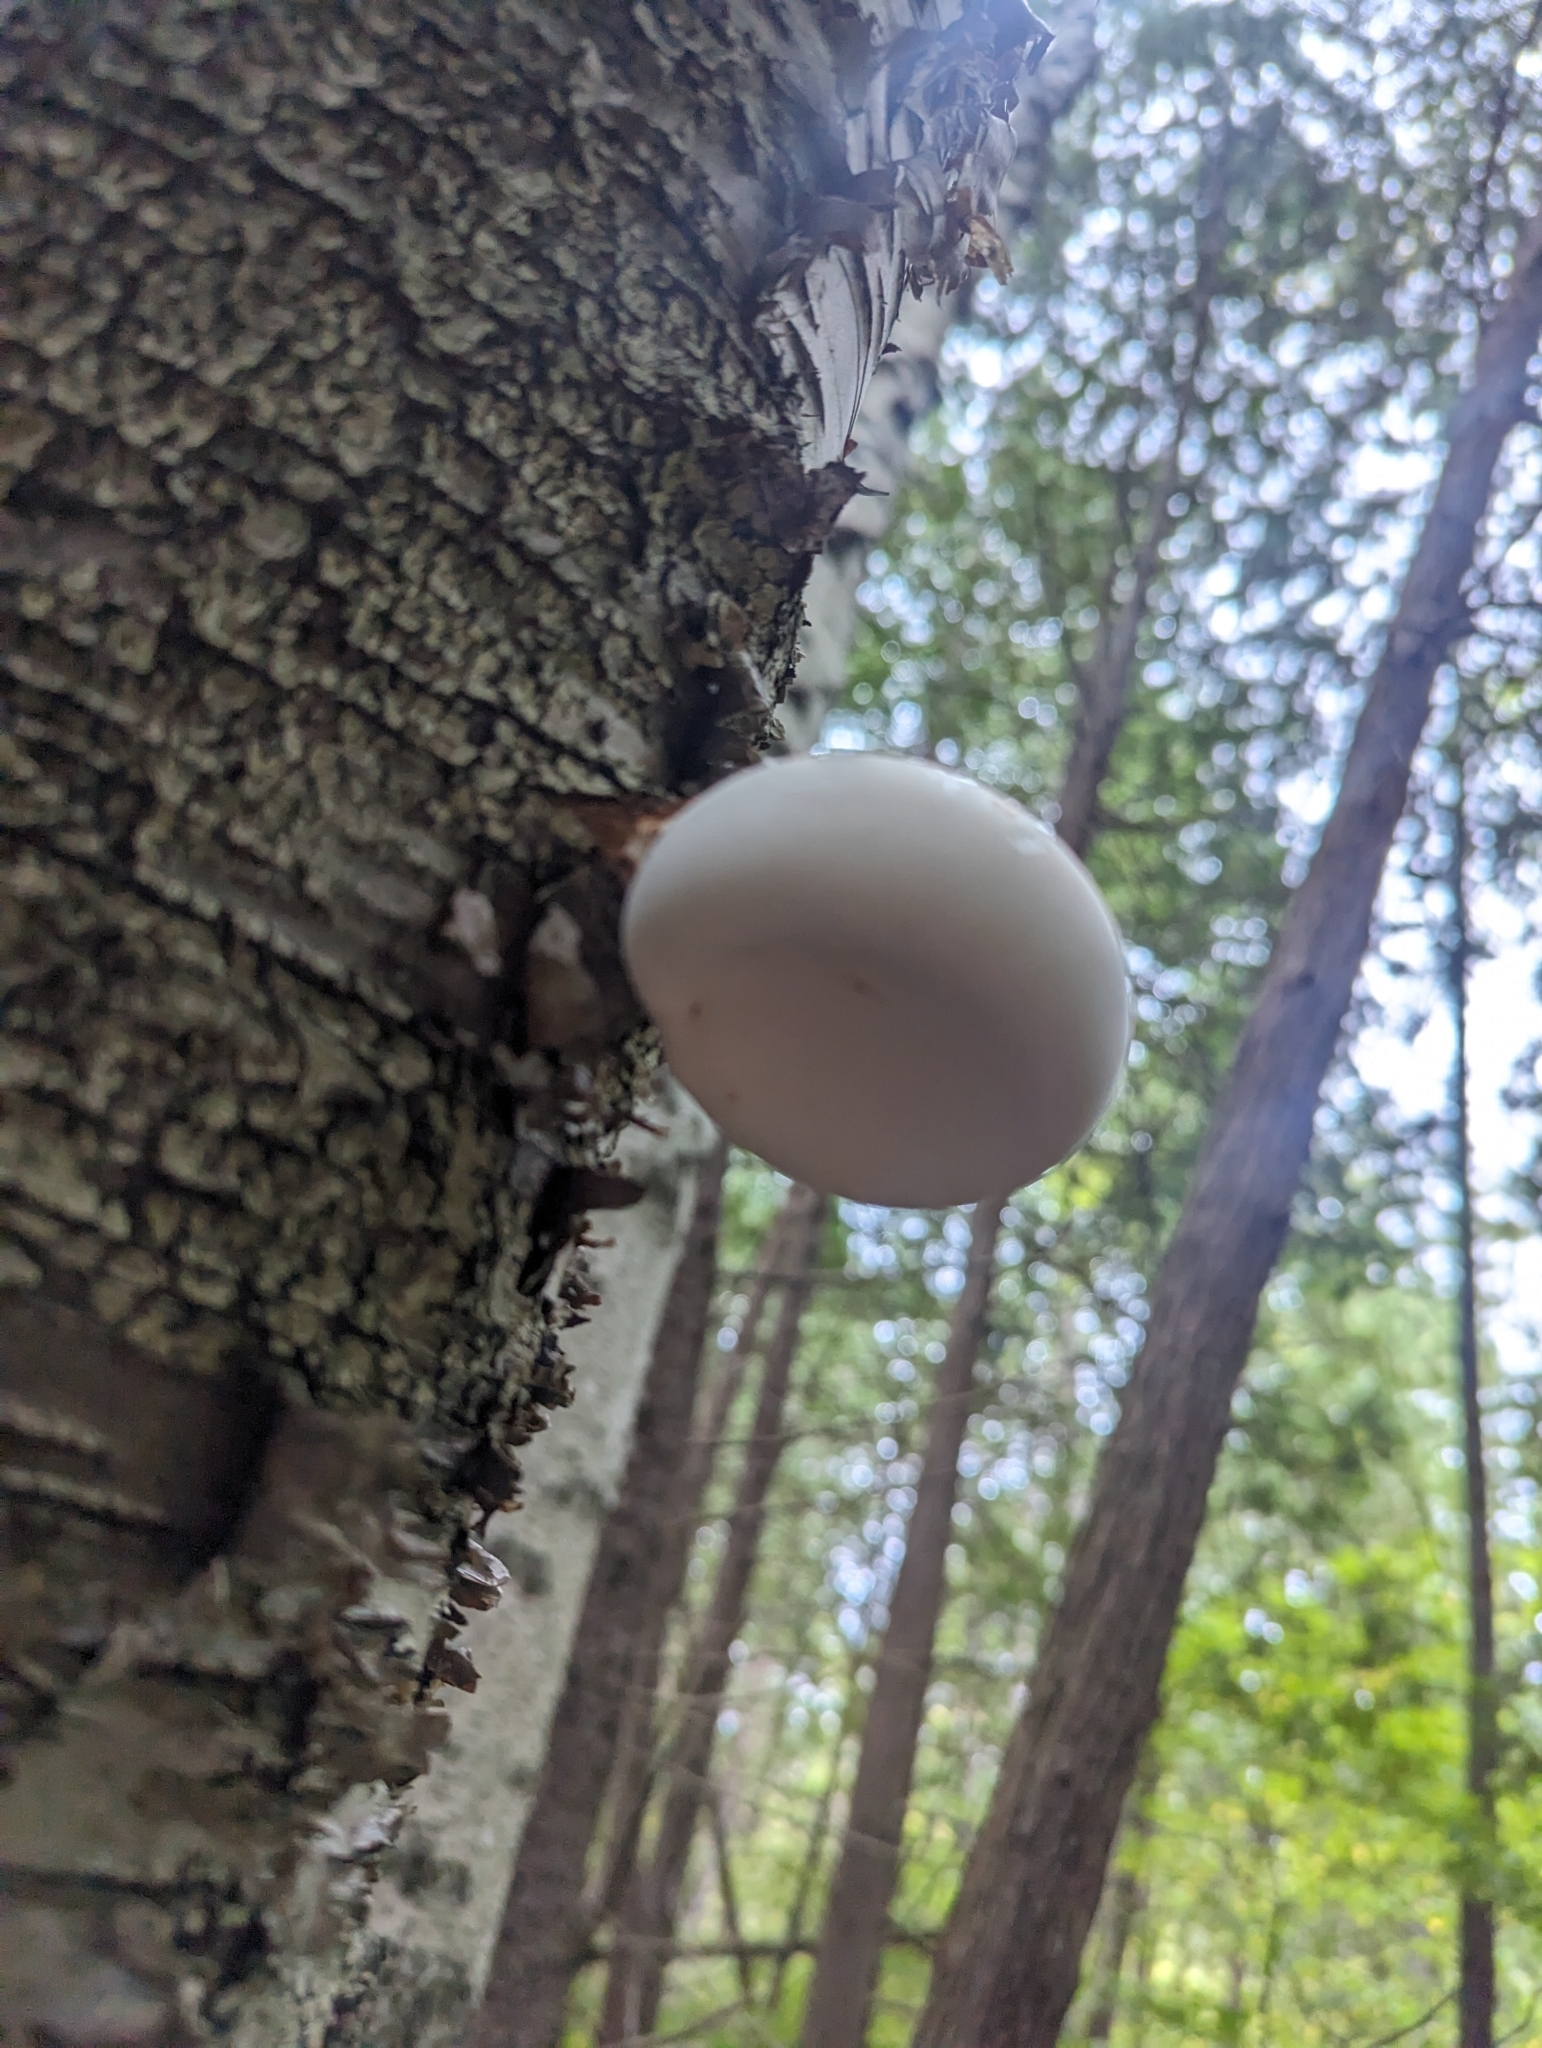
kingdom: Fungi
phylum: Basidiomycota
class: Agaricomycetes
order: Polyporales
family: Fomitopsidaceae
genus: Fomitopsis
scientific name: Fomitopsis betulina
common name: Birch polypore
